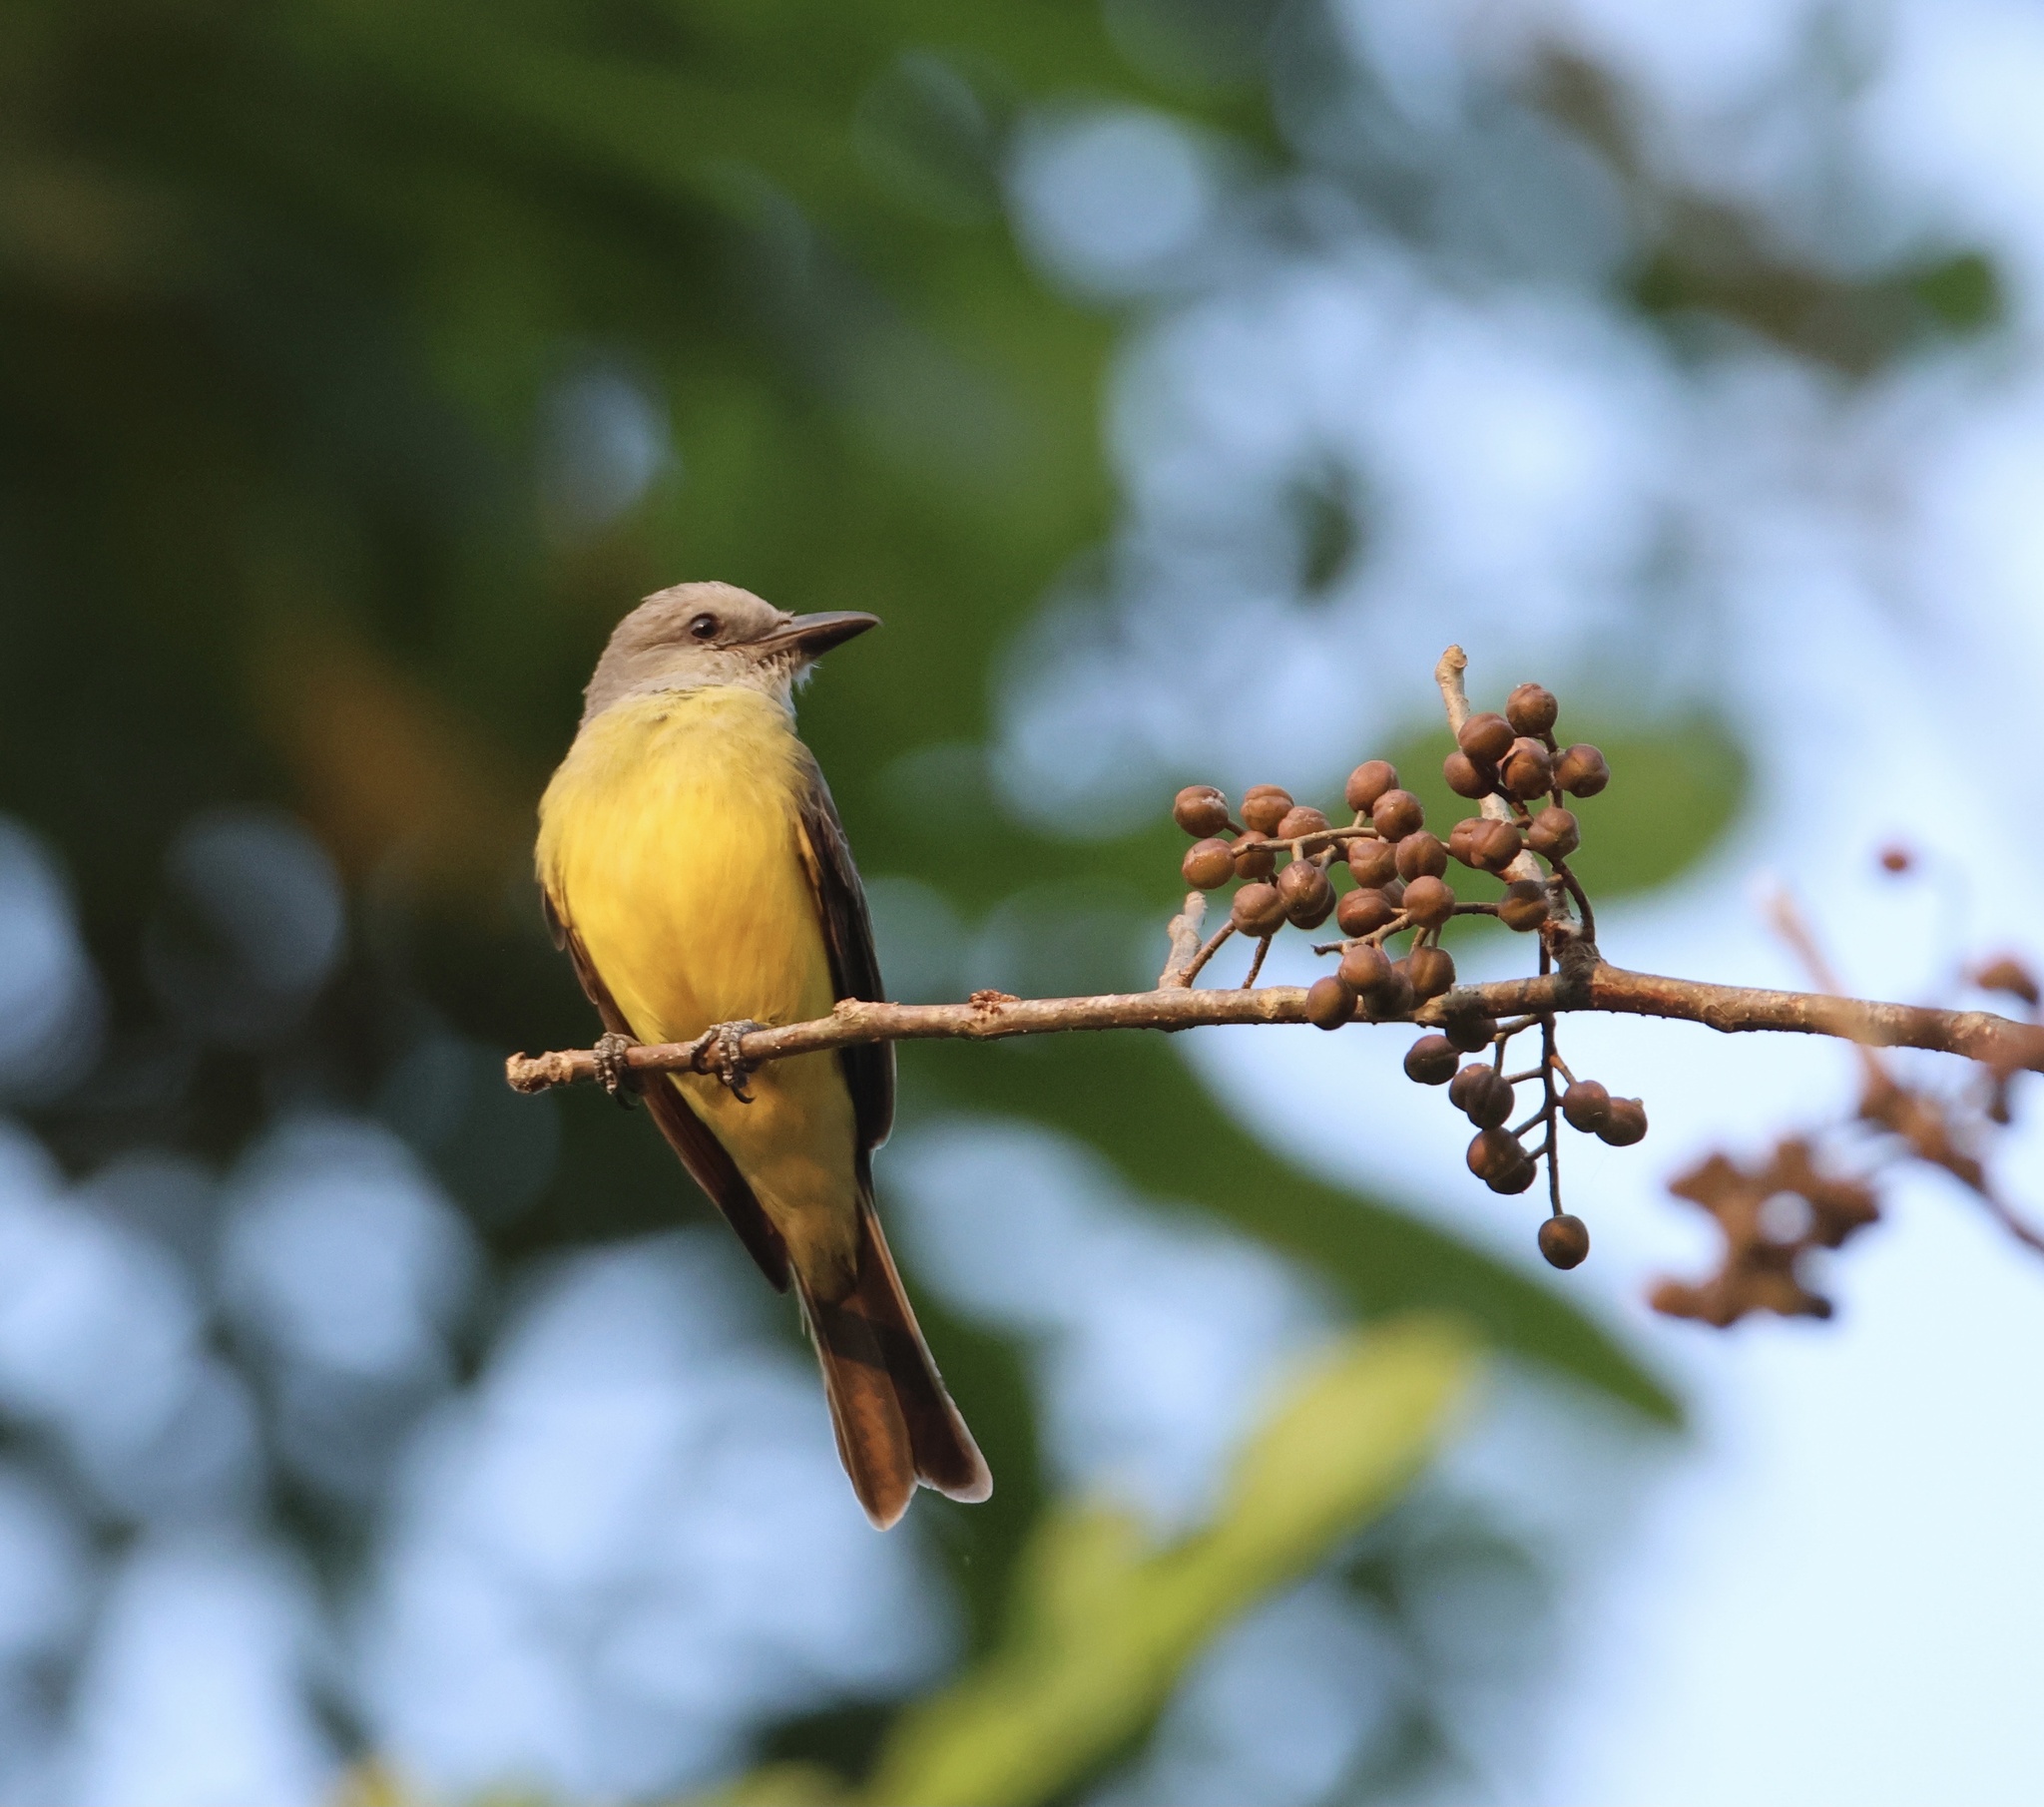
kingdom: Animalia
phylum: Chordata
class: Aves
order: Passeriformes
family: Tyrannidae
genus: Tyrannus
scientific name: Tyrannus melancholicus
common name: Tropical kingbird
